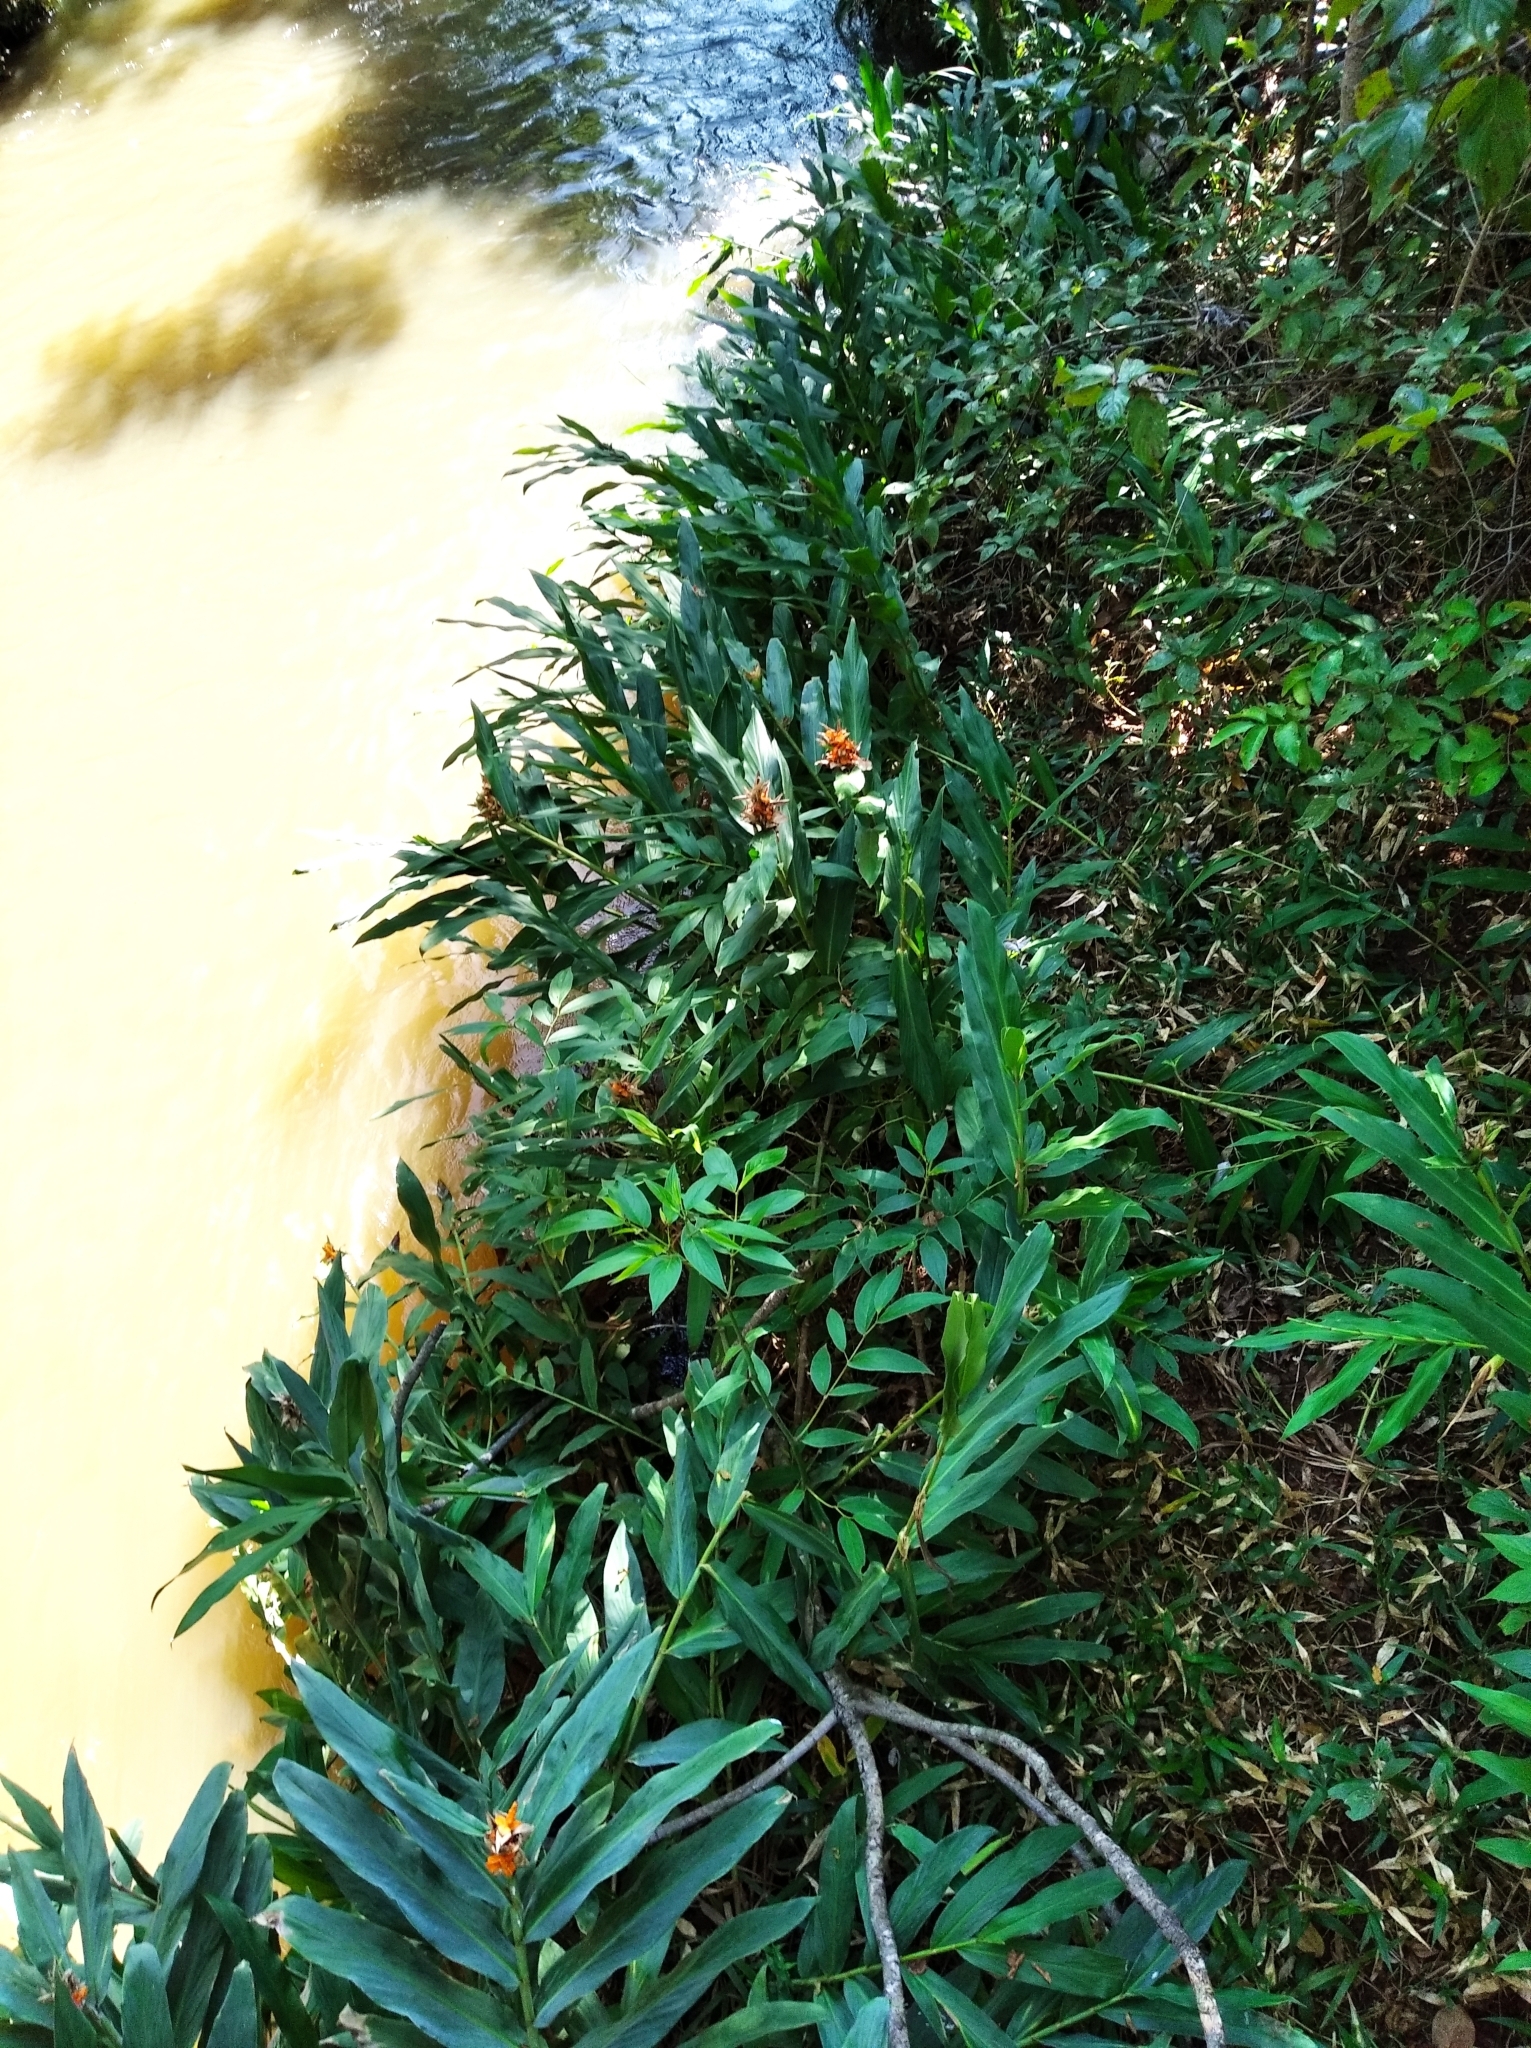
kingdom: Plantae
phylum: Tracheophyta
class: Liliopsida
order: Zingiberales
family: Zingiberaceae
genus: Hedychium
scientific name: Hedychium coronarium
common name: White garland-lily
